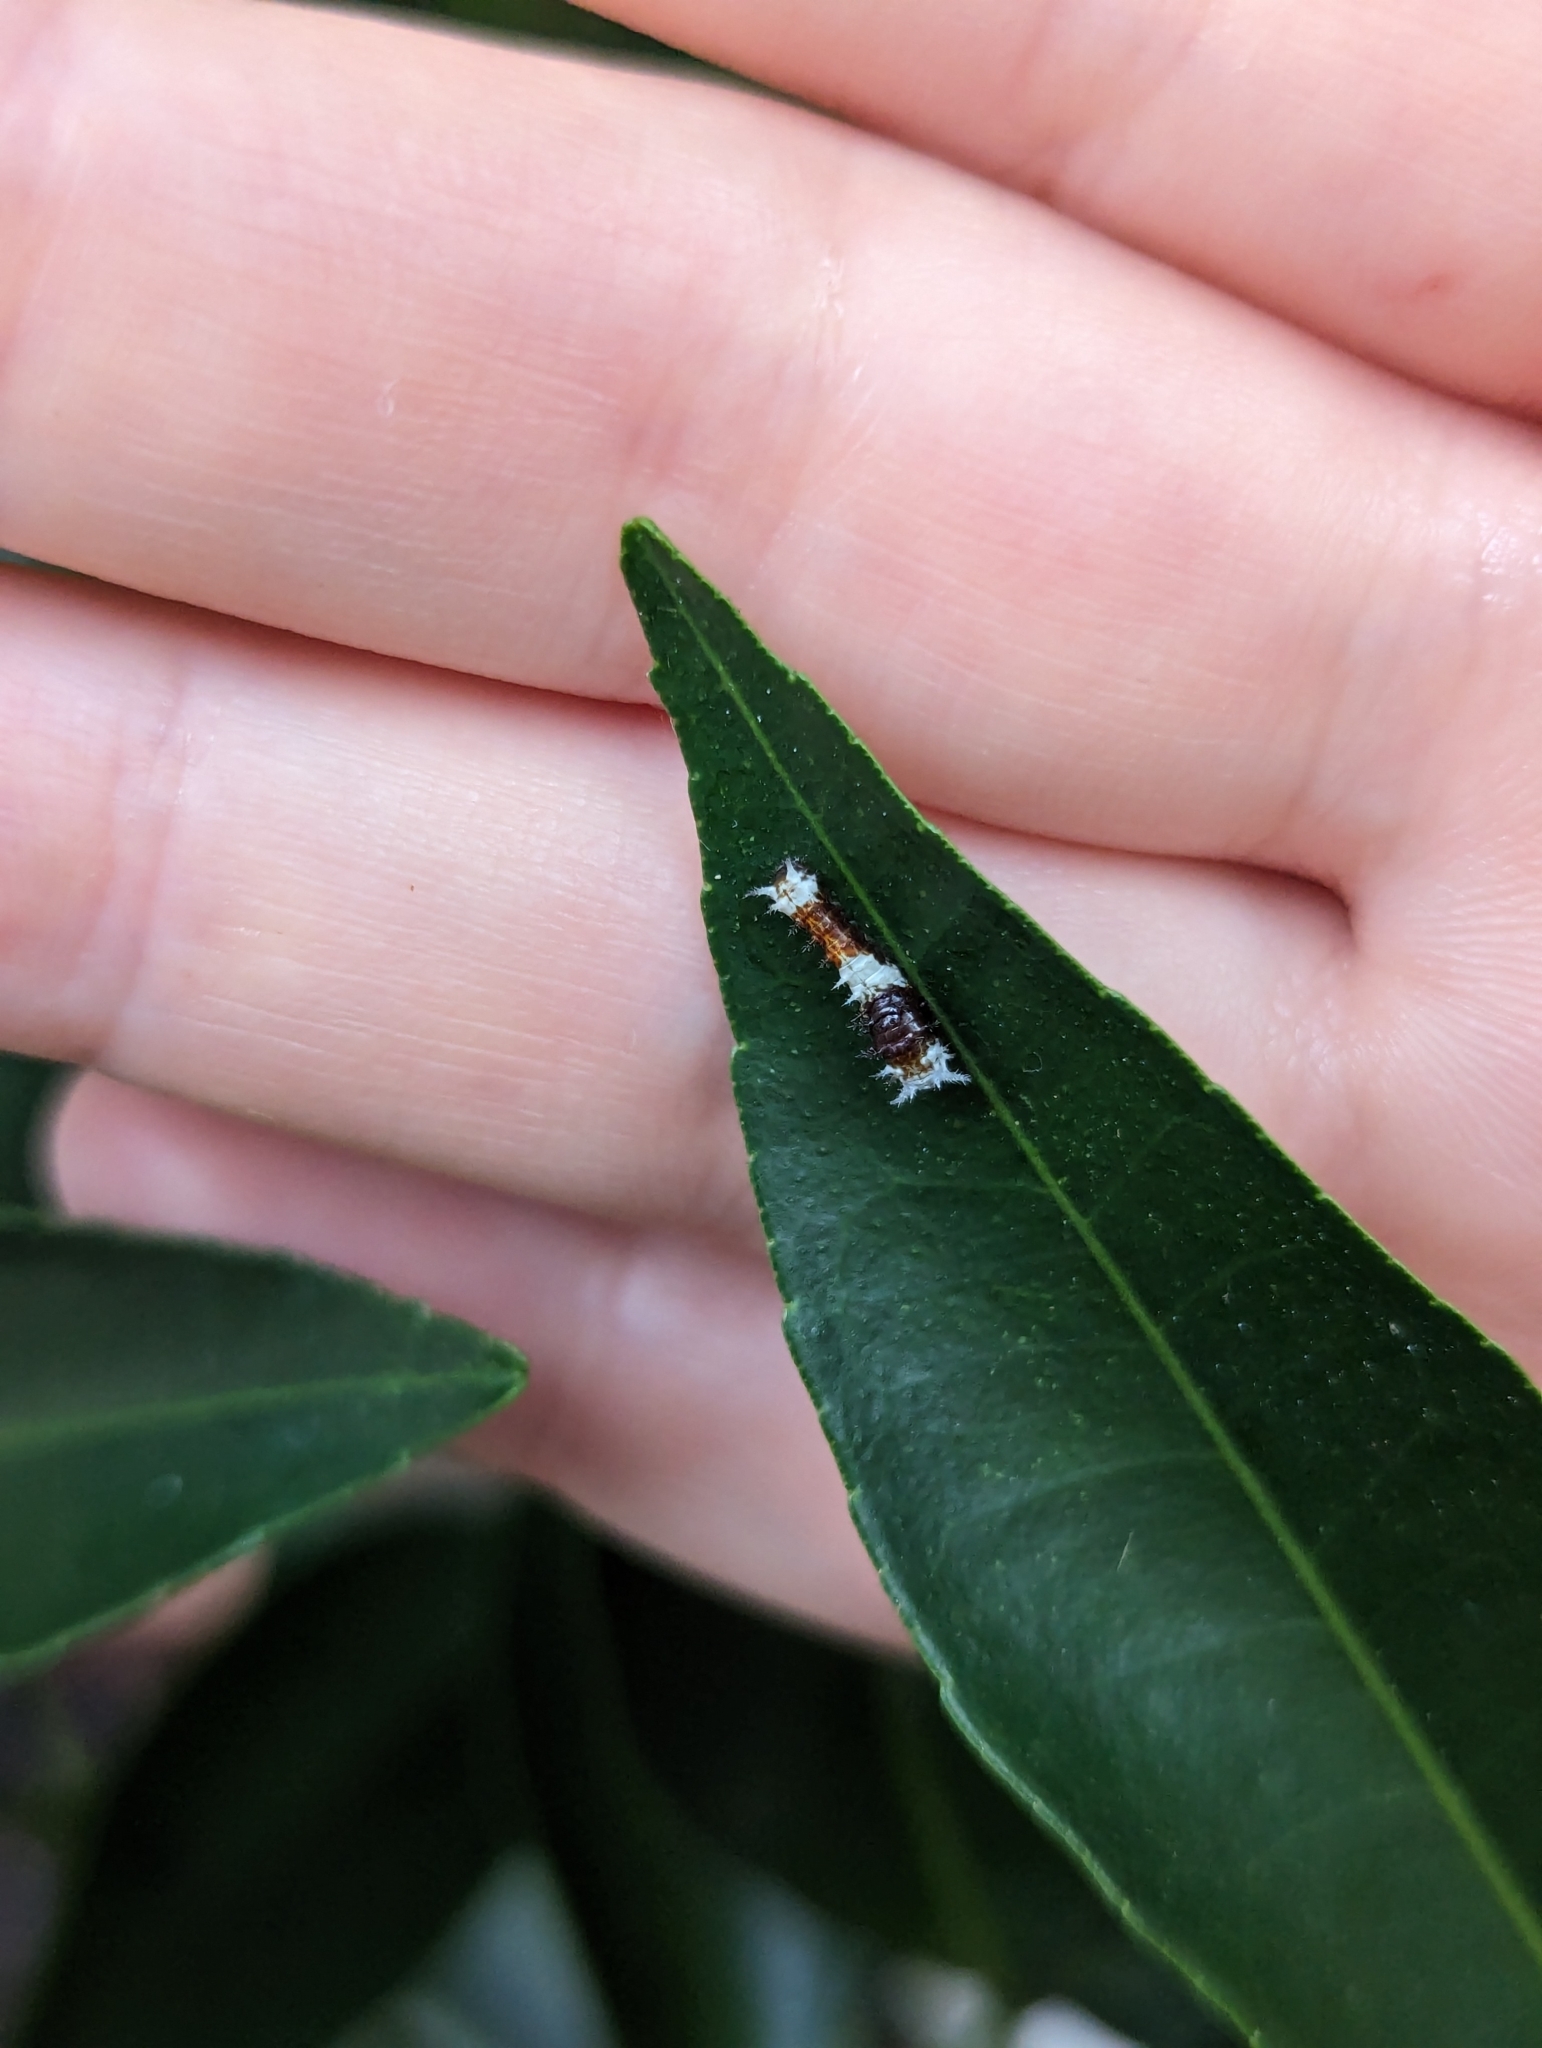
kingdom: Animalia
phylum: Arthropoda
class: Insecta
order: Lepidoptera
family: Papilionidae
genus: Papilio
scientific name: Papilio aegeus
